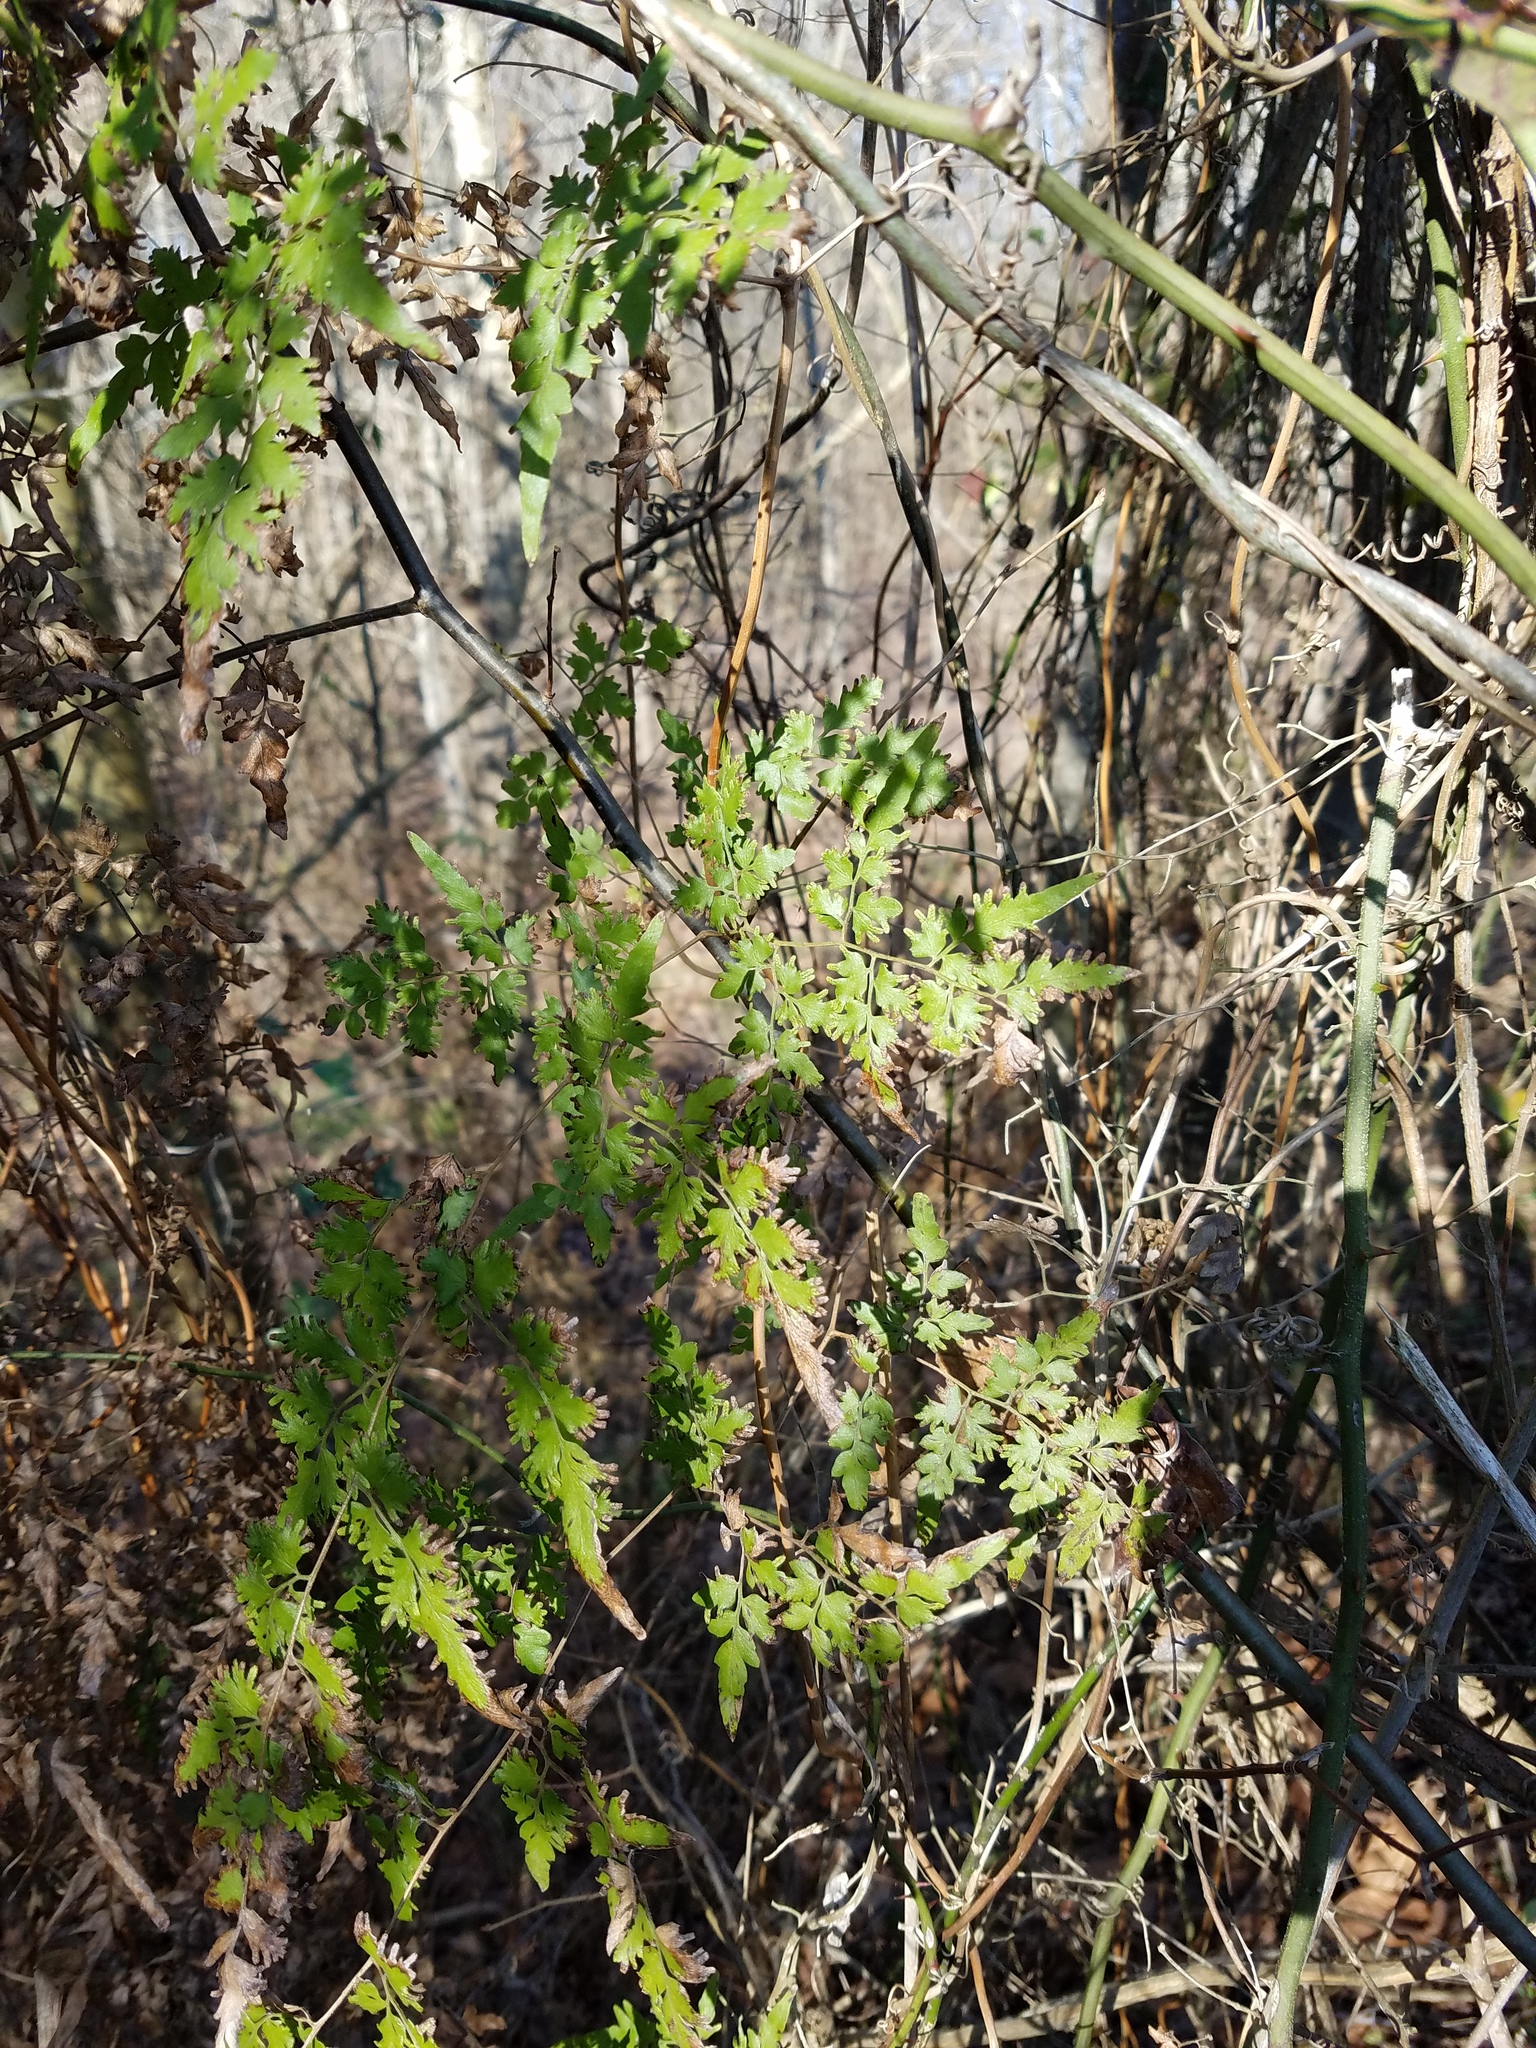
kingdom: Plantae
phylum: Tracheophyta
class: Polypodiopsida
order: Schizaeales
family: Lygodiaceae
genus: Lygodium
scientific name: Lygodium japonicum
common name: Japanese climbing fern
